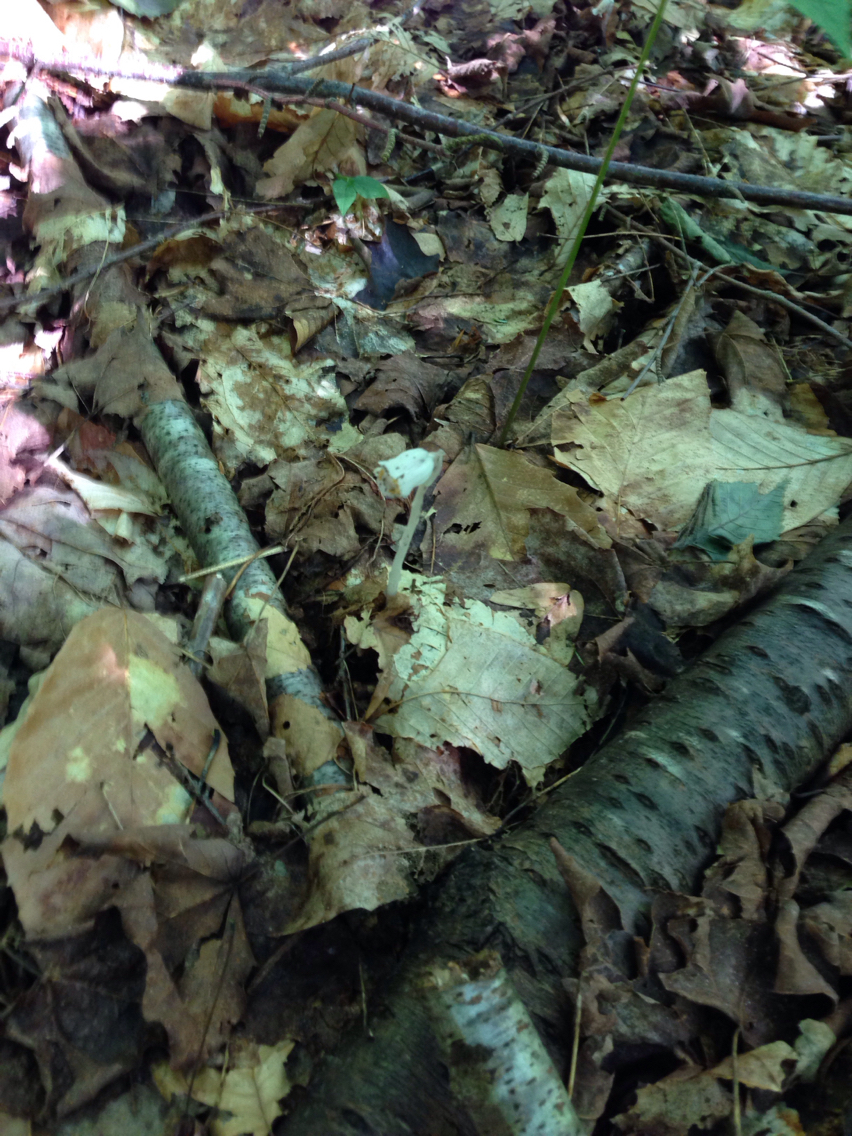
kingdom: Plantae
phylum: Tracheophyta
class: Magnoliopsida
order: Ericales
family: Ericaceae
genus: Monotropa
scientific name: Monotropa uniflora
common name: Convulsion root
